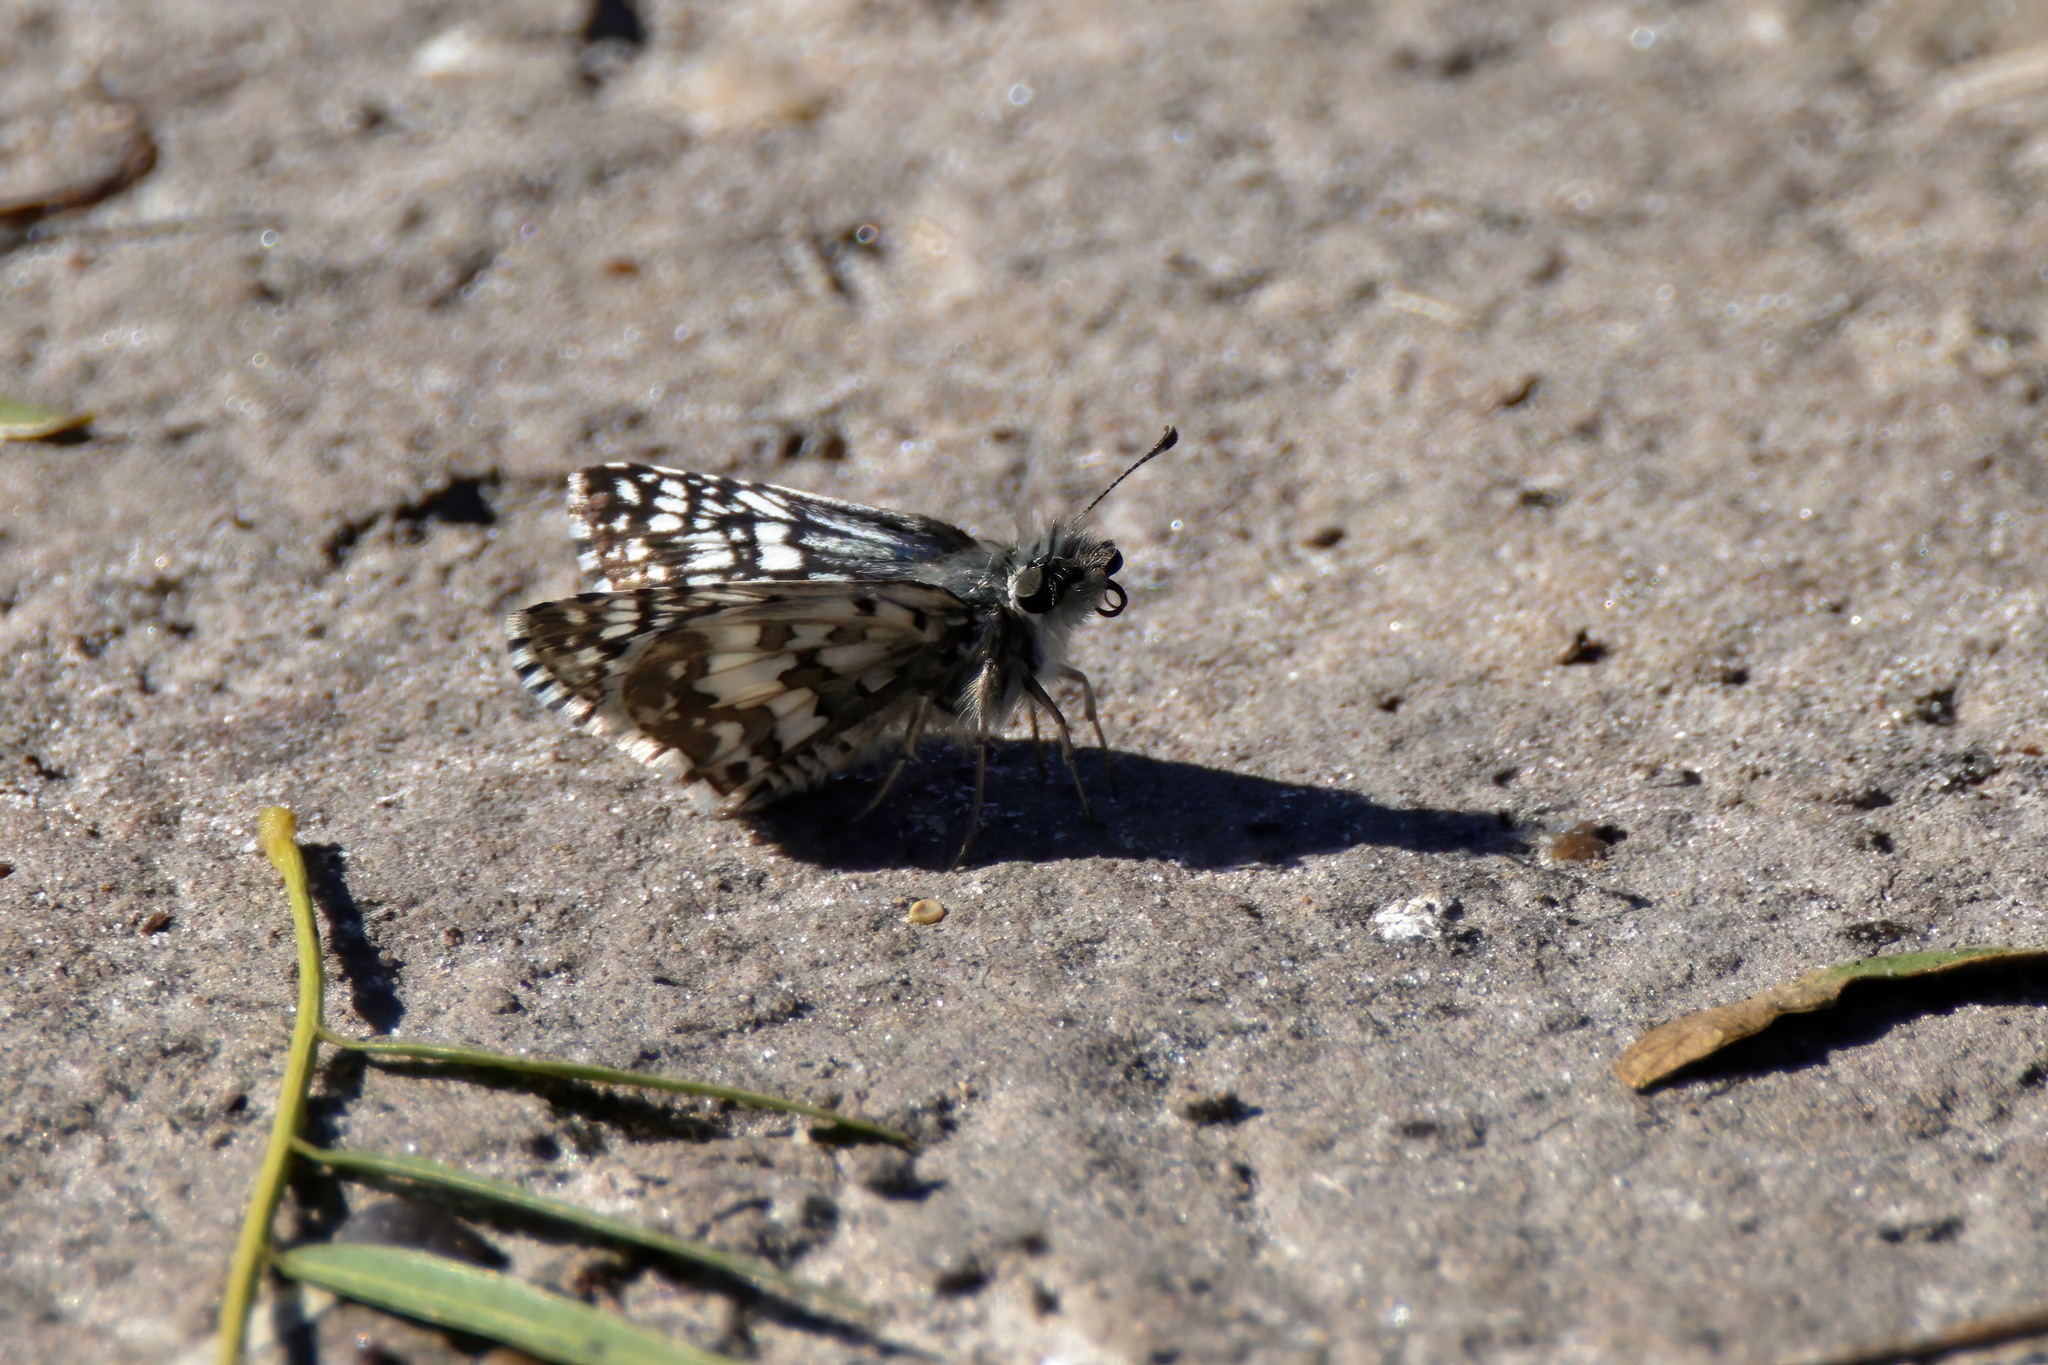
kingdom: Animalia
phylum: Arthropoda
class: Insecta
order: Lepidoptera
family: Hesperiidae
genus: Burnsius
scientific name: Burnsius albezens
